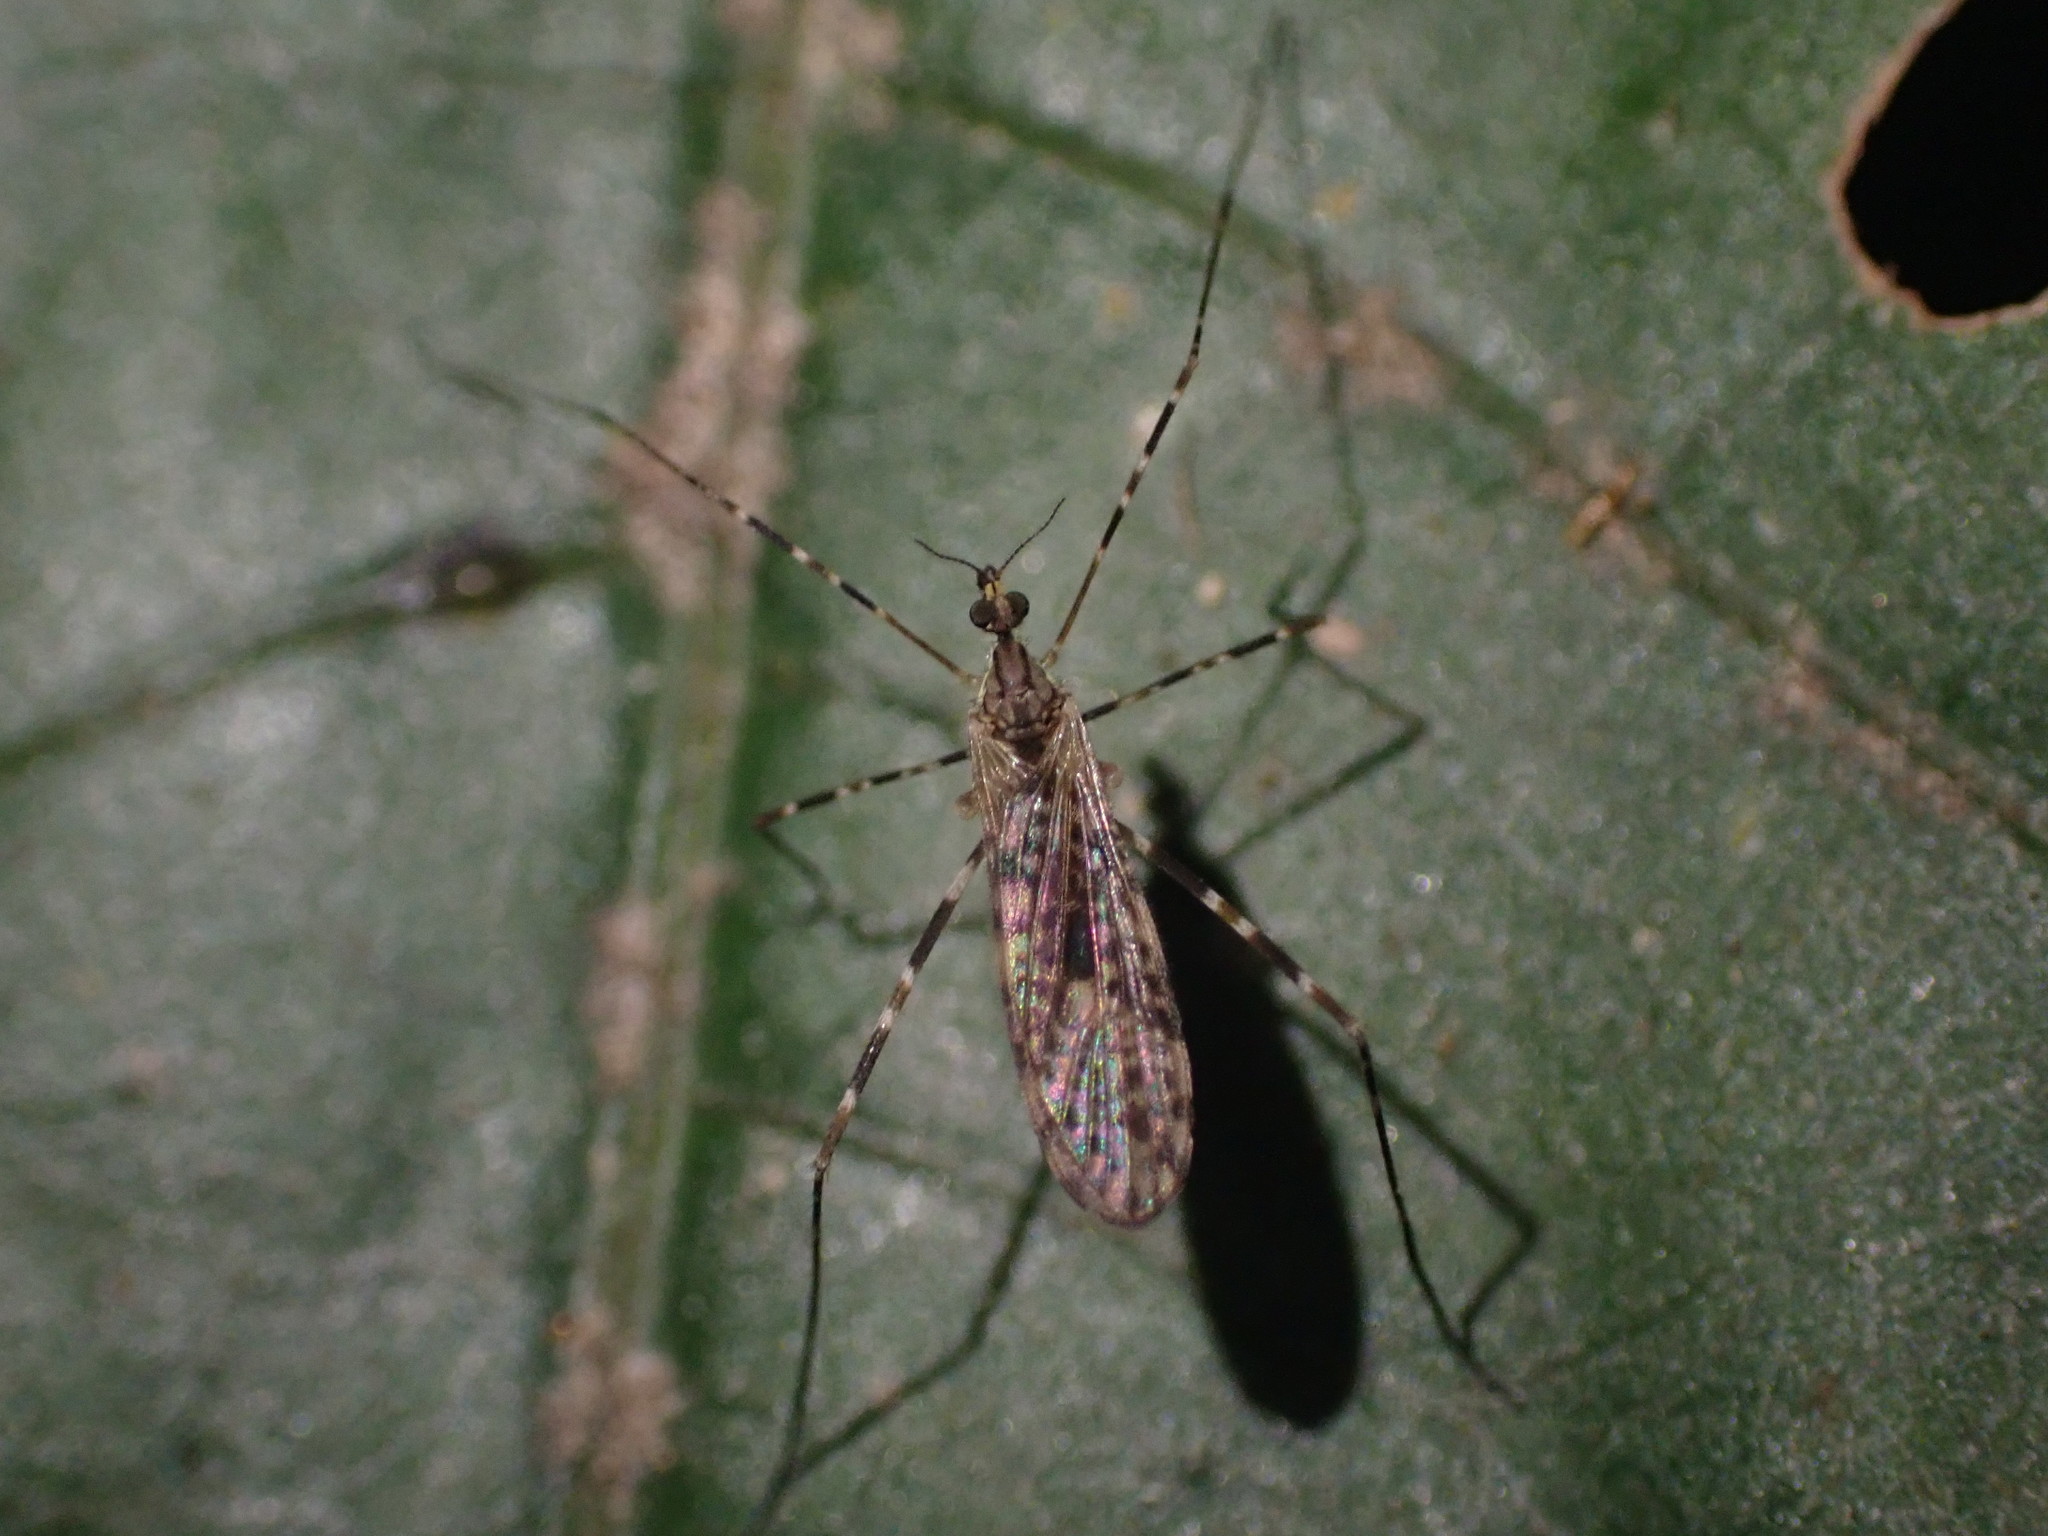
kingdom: Animalia
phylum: Arthropoda
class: Insecta
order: Diptera
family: Limoniidae
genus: Amphineurus
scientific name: Amphineurus hudsoni
